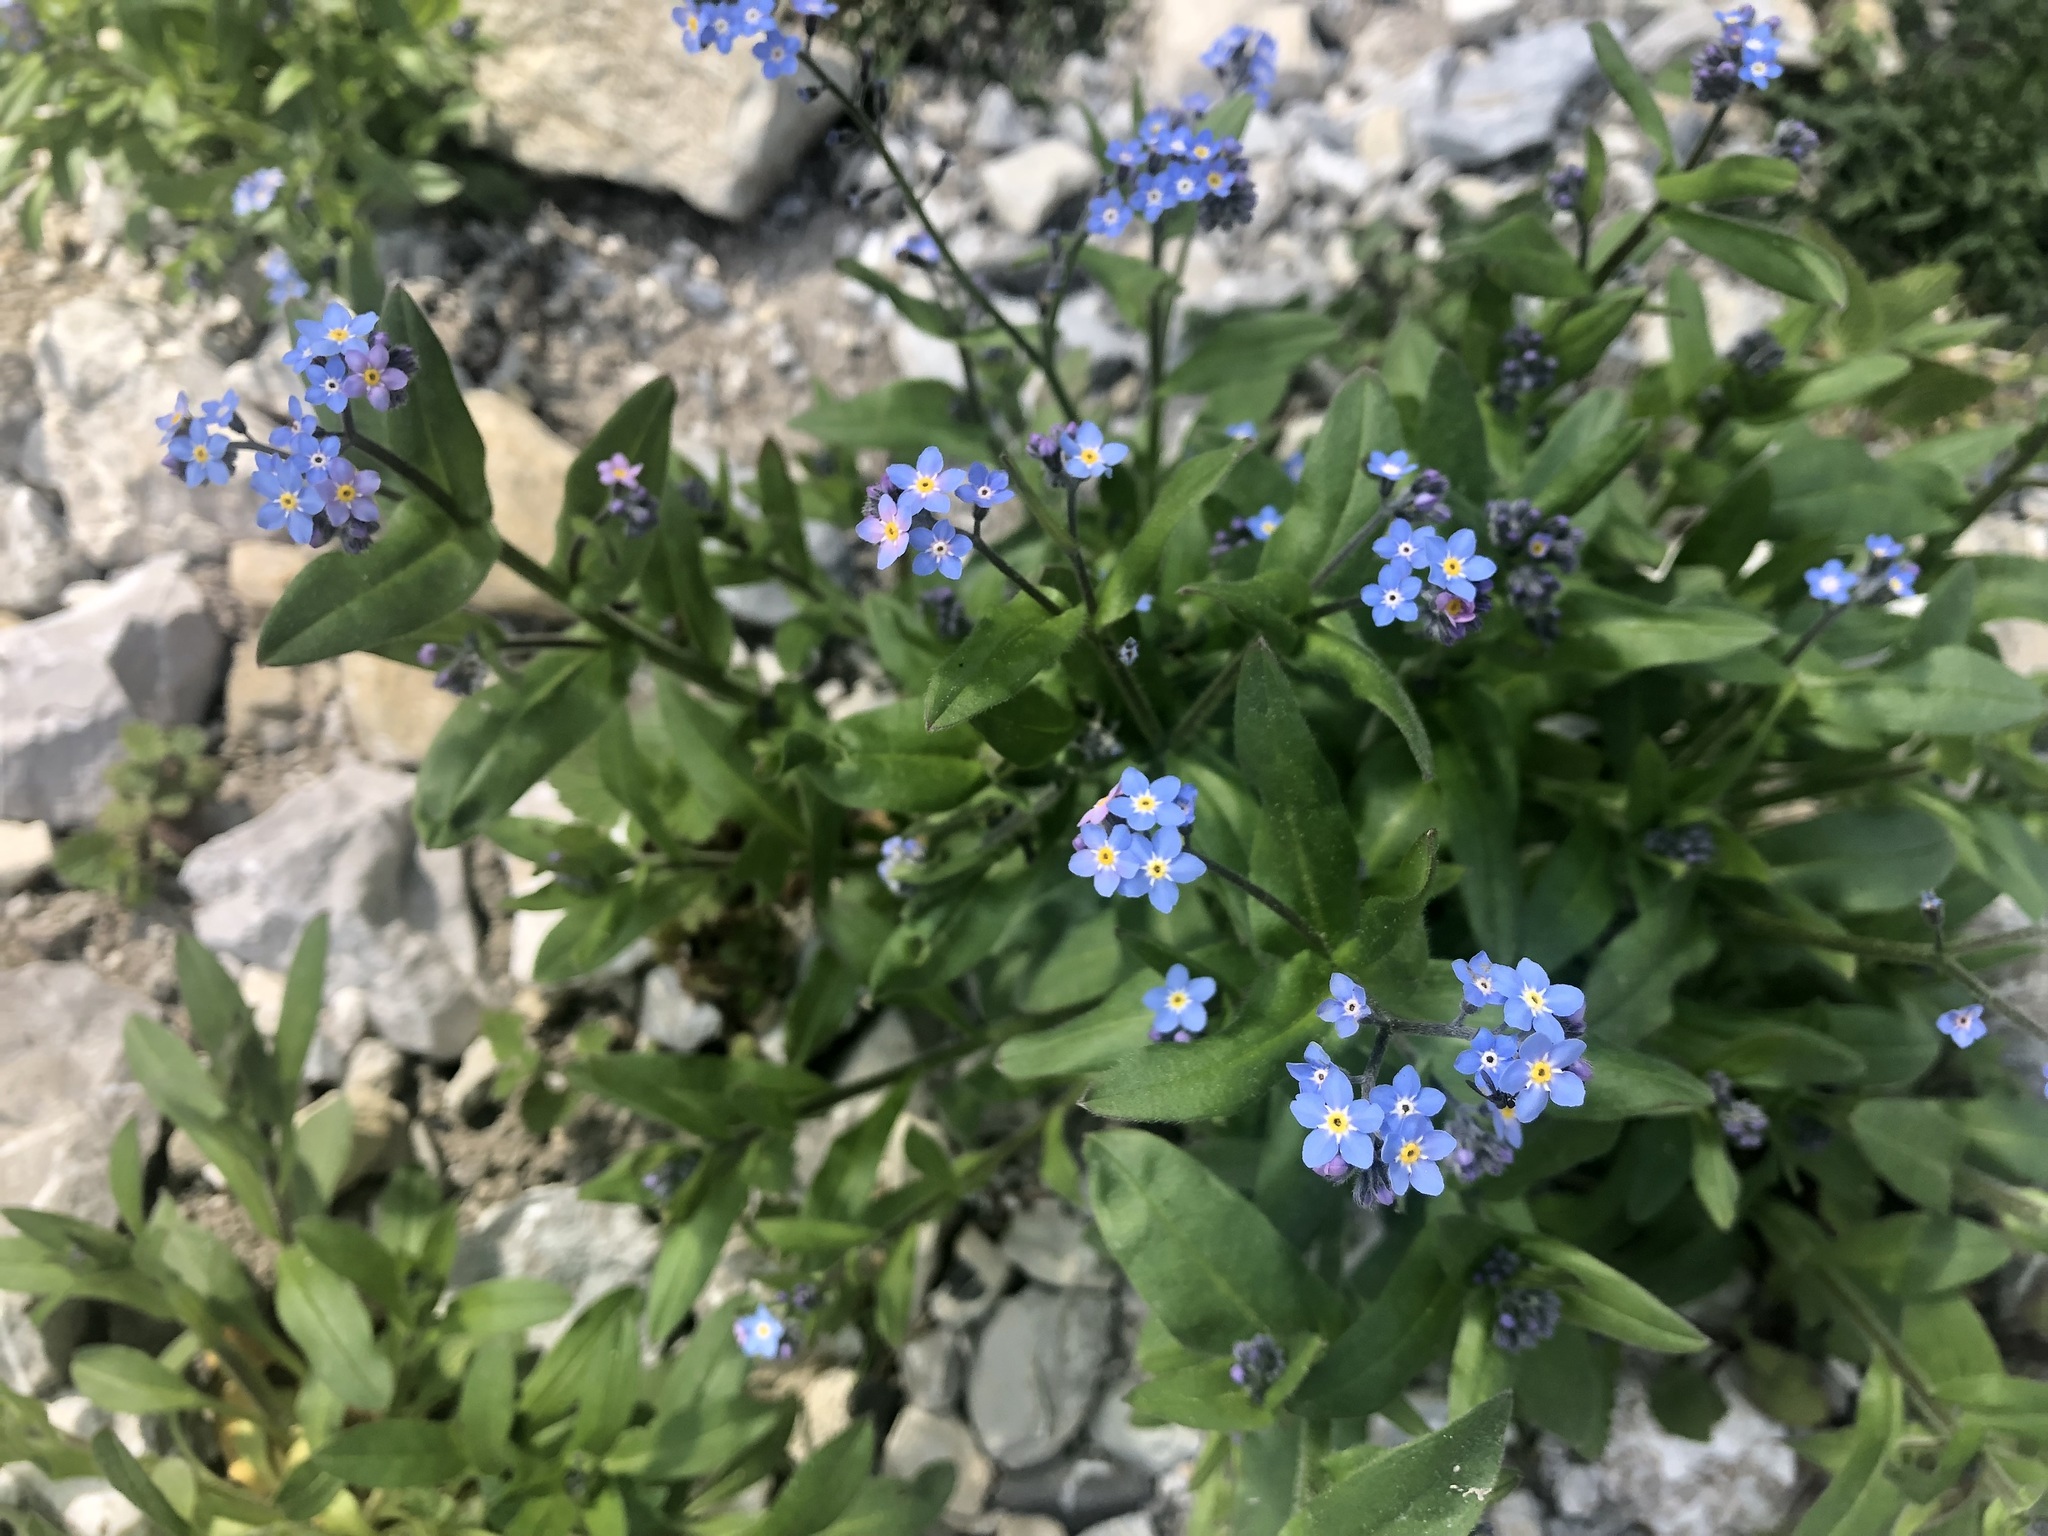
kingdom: Plantae
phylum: Tracheophyta
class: Magnoliopsida
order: Boraginales
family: Boraginaceae
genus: Myosotis
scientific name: Myosotis alpestris
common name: Alpine forget-me-not
